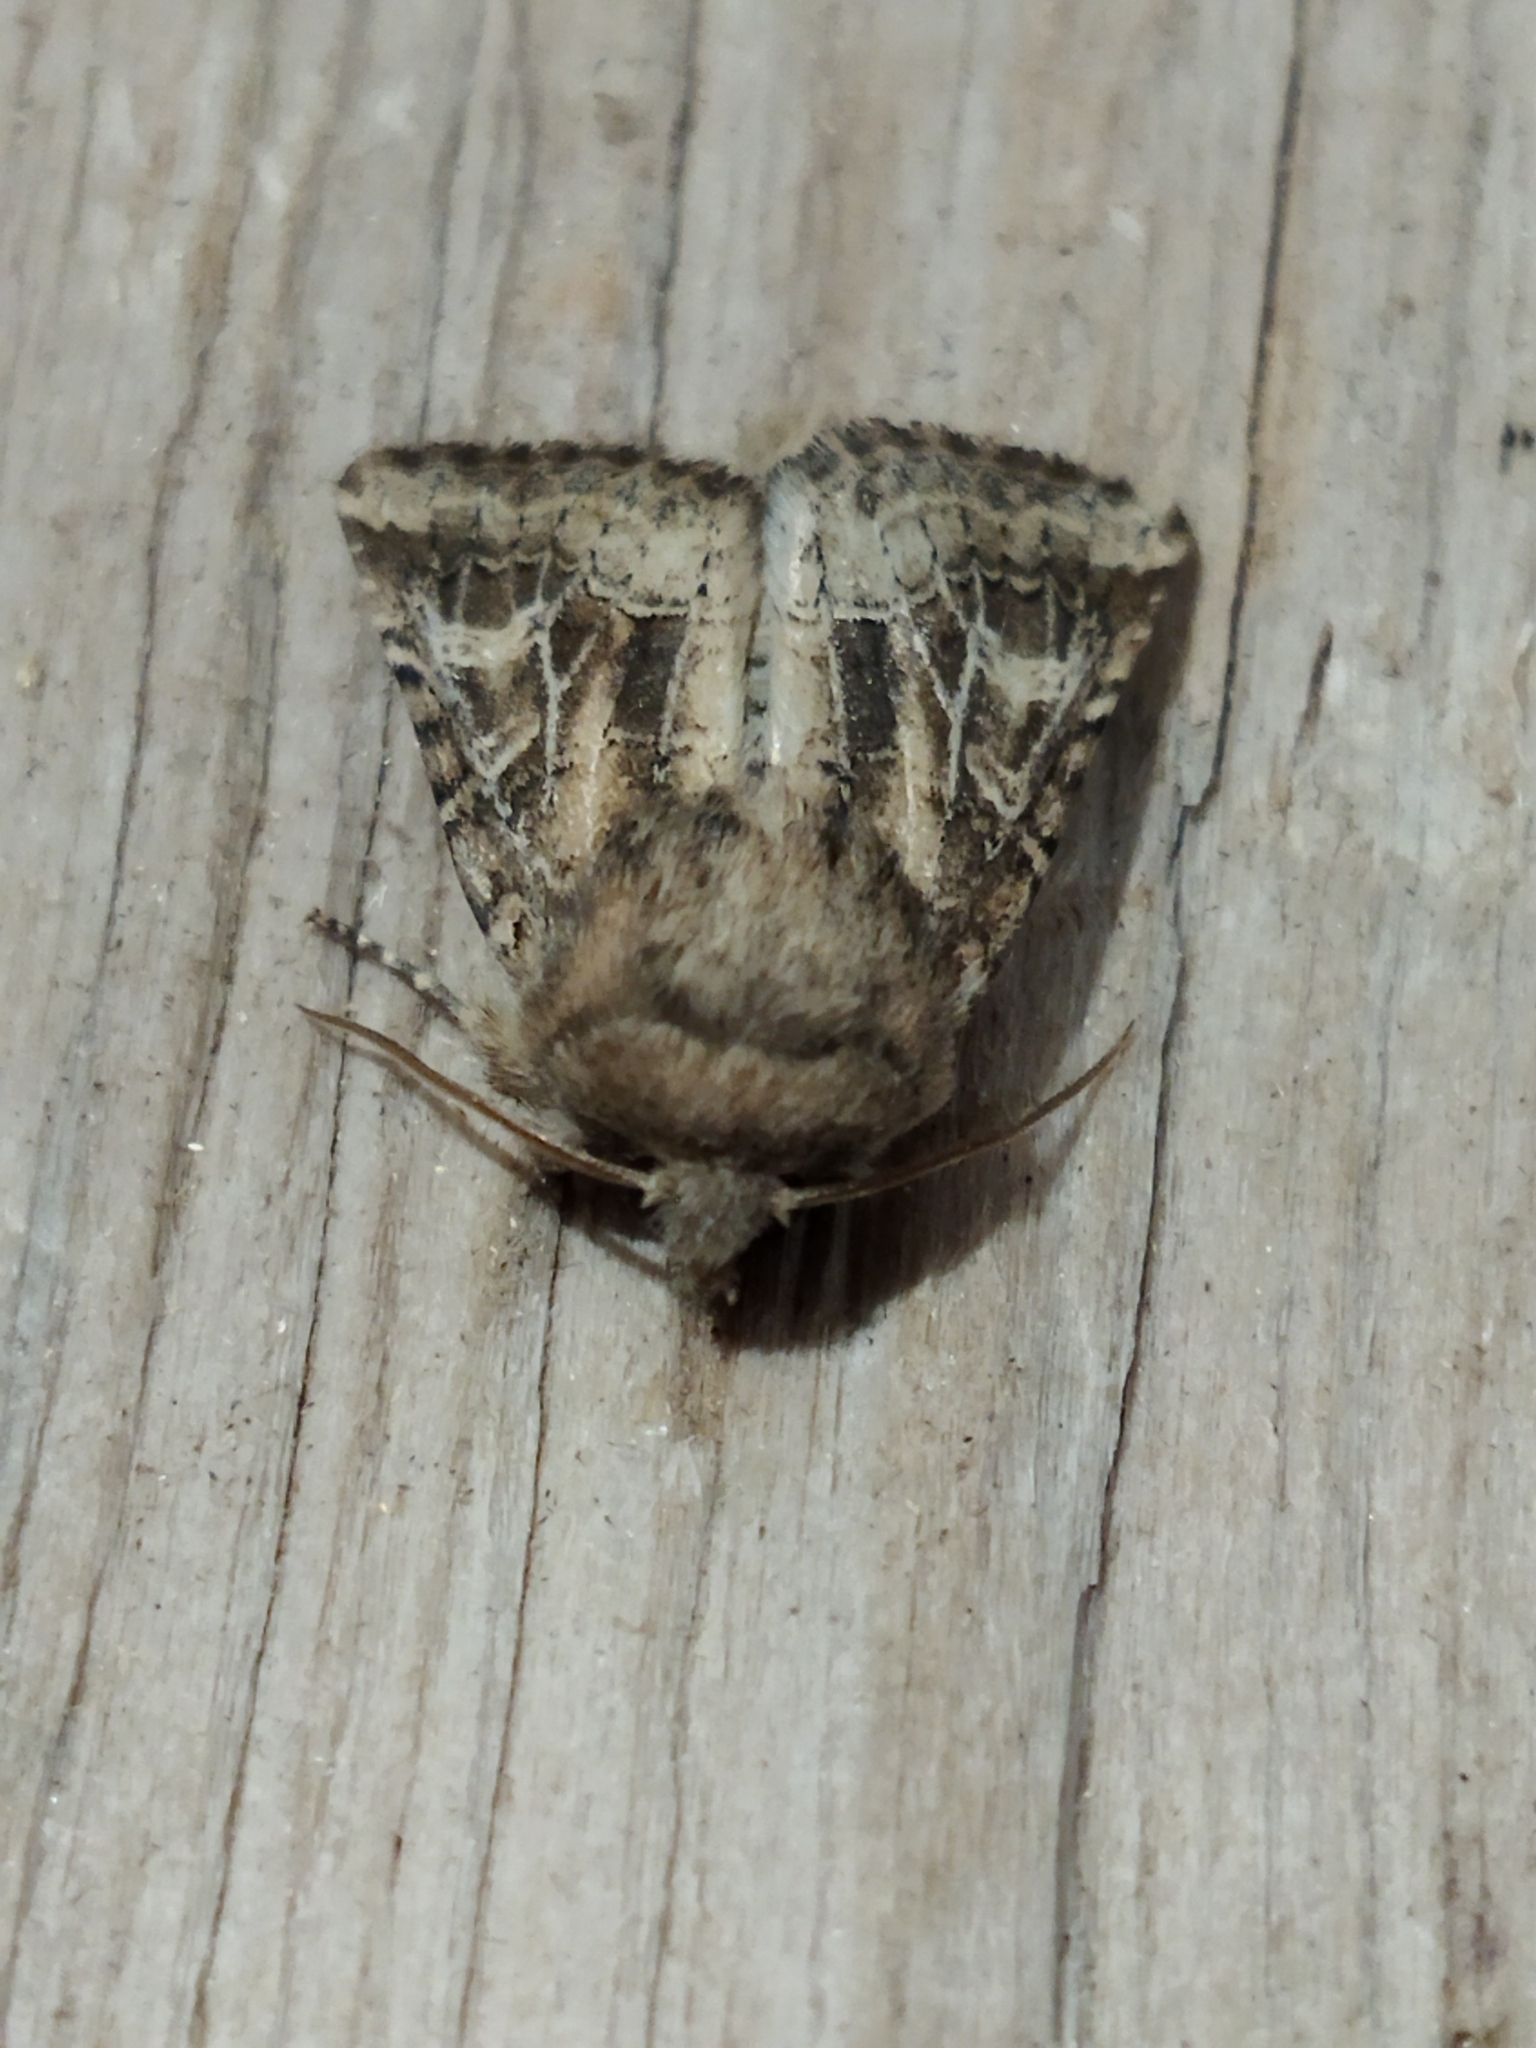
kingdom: Animalia
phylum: Arthropoda
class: Insecta
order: Lepidoptera
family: Noctuidae
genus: Luperina
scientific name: Luperina dumerilii
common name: Dumeril's rustic
